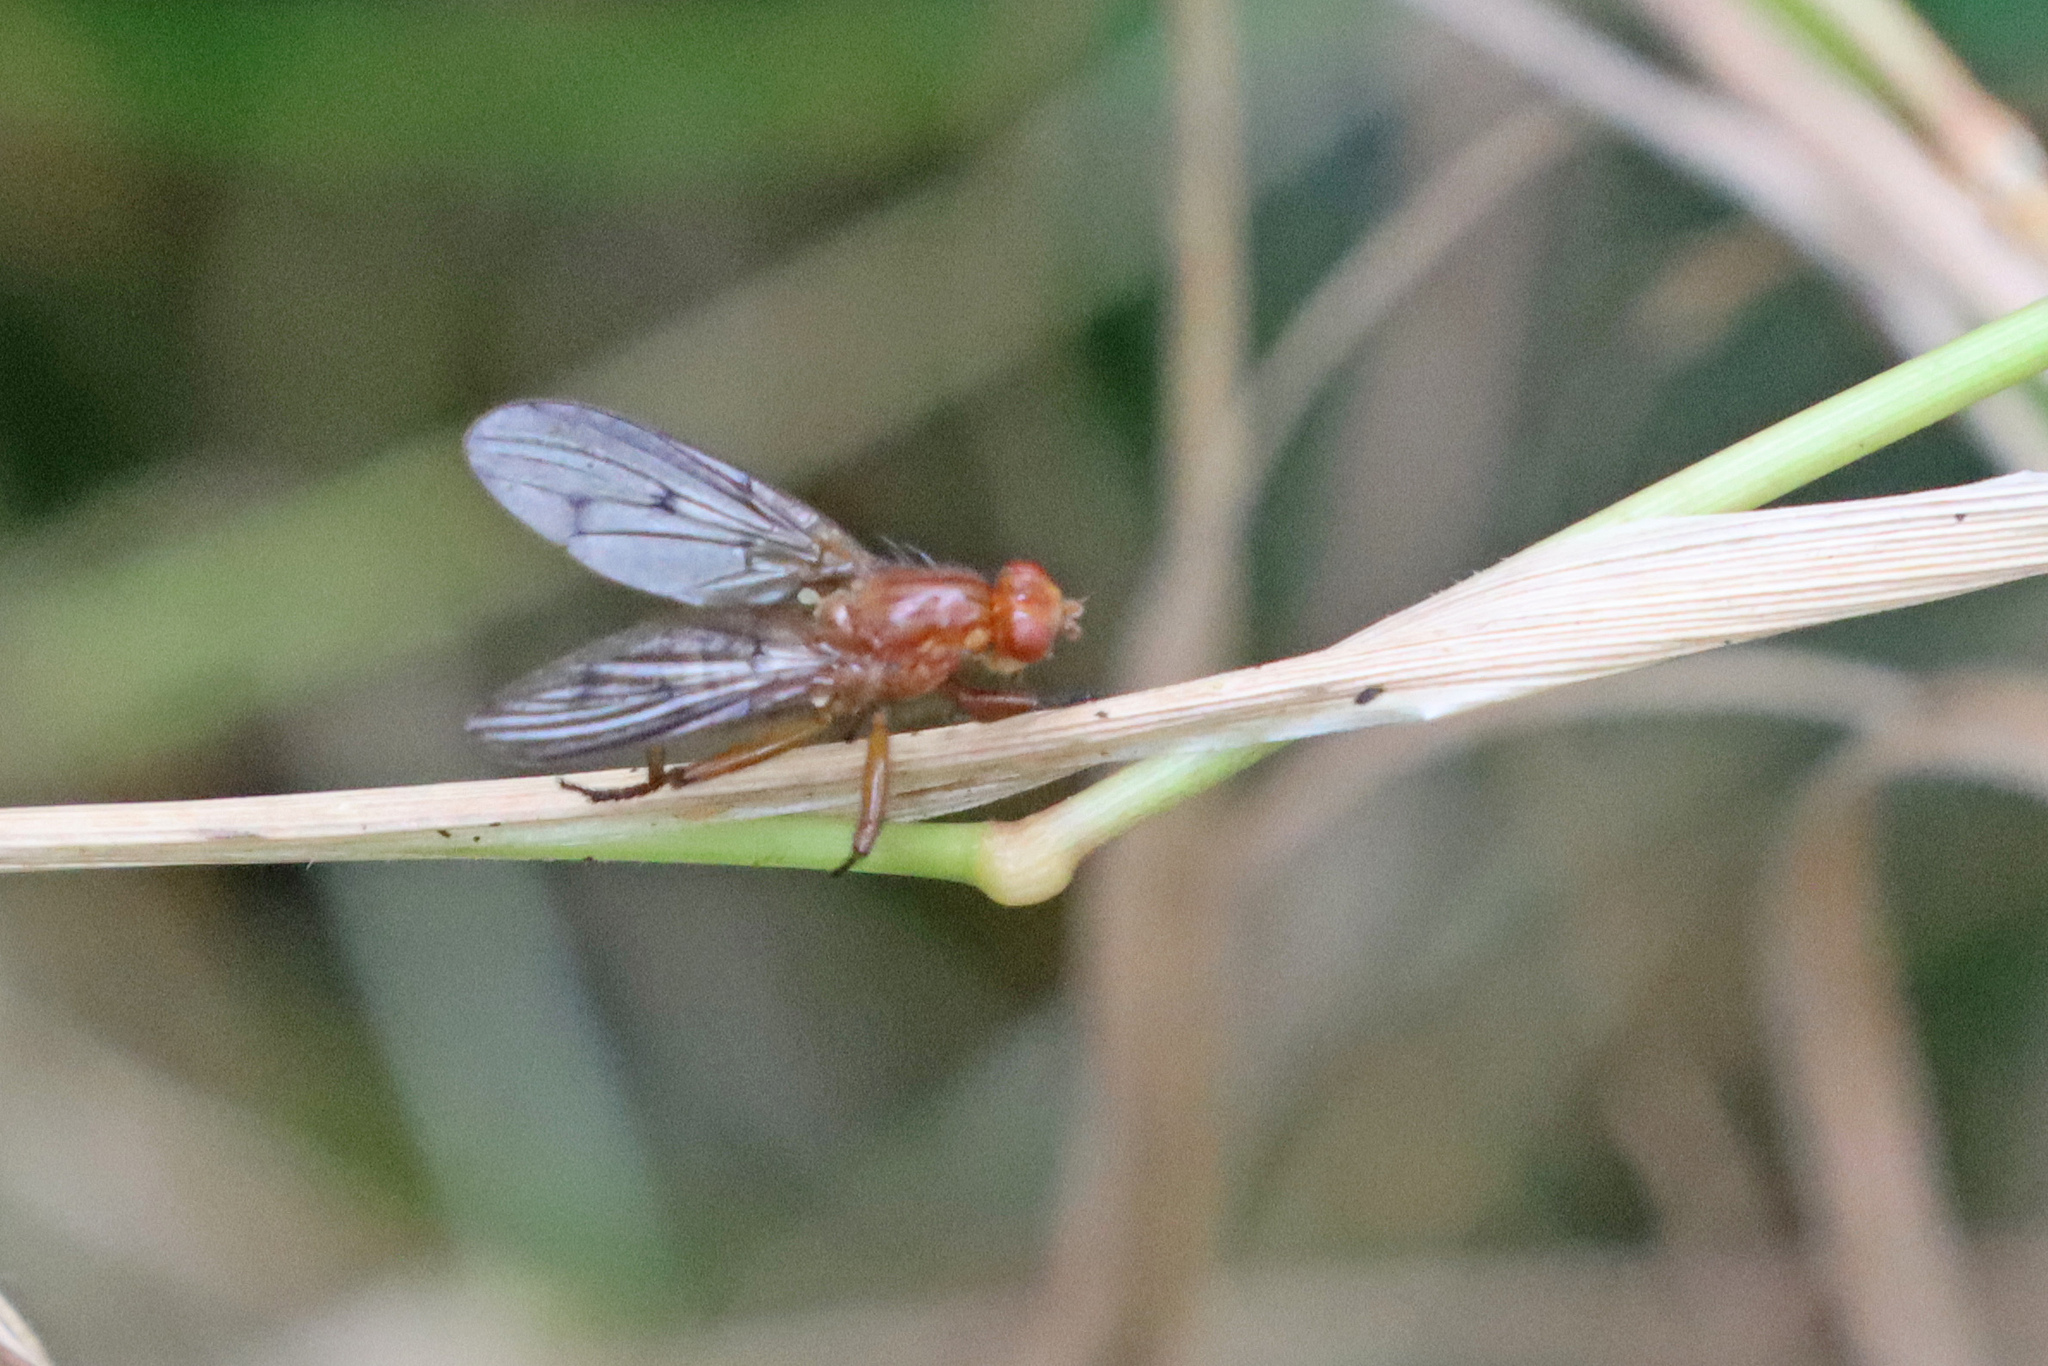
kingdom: Animalia
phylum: Arthropoda
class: Insecta
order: Diptera
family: Dryomyzidae
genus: Dryomyza
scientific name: Dryomyza anilis
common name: Marsh fly
